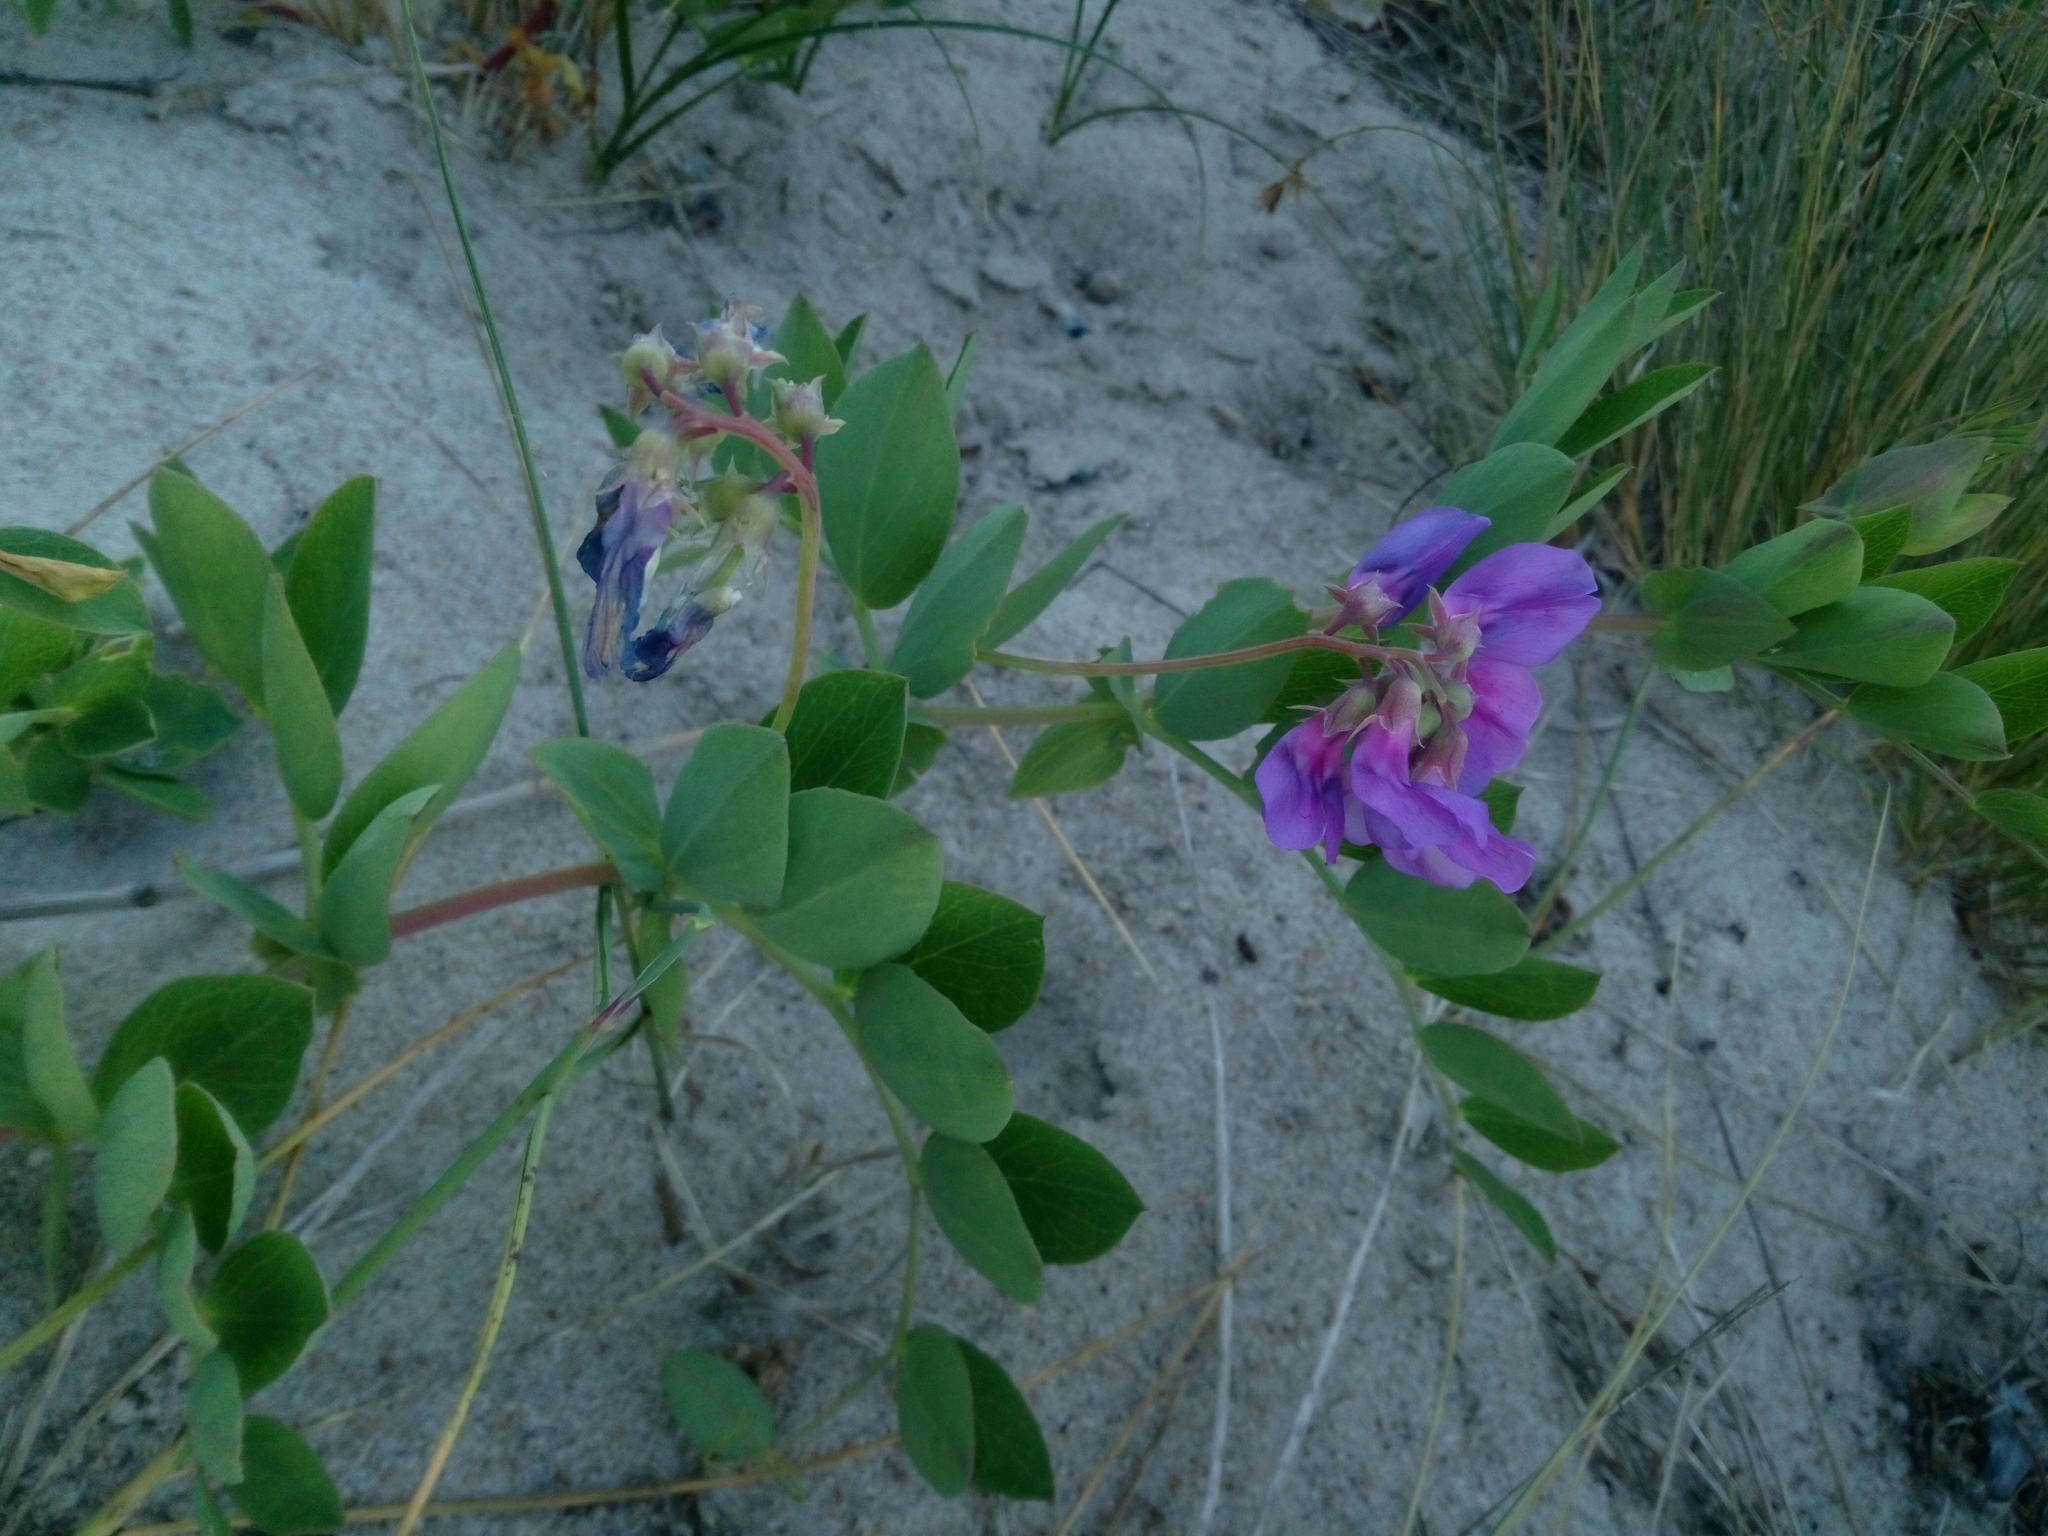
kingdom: Plantae
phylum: Tracheophyta
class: Magnoliopsida
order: Fabales
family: Fabaceae
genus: Lathyrus
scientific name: Lathyrus japonicus
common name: Sea pea
